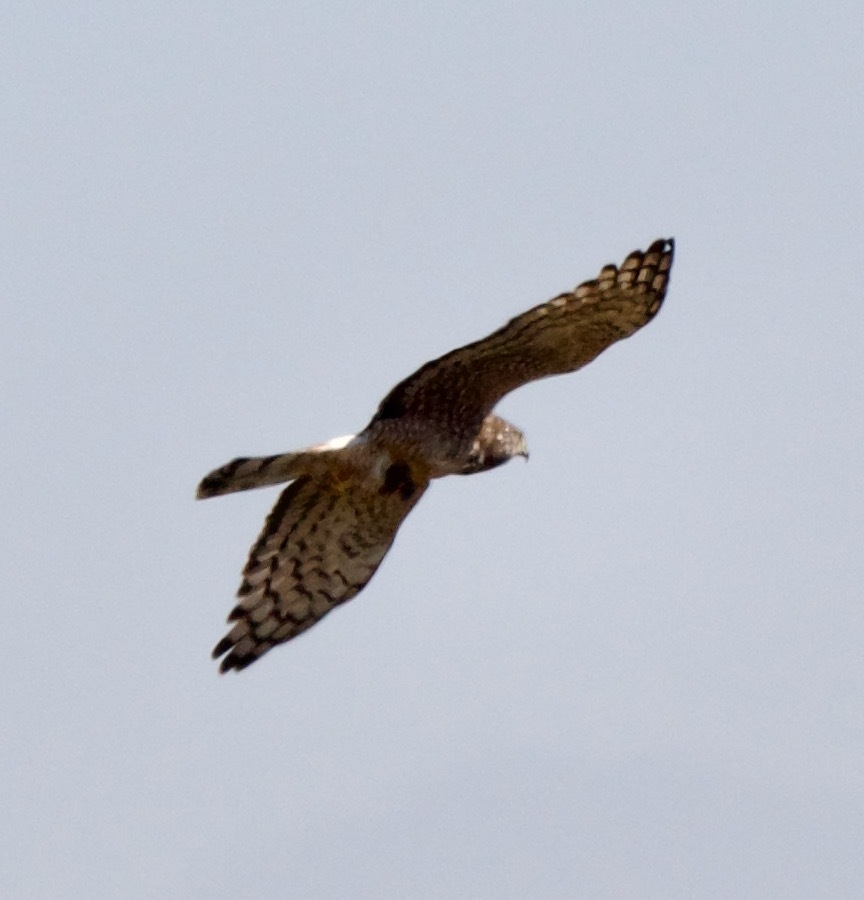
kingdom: Animalia
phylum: Chordata
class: Aves
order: Accipitriformes
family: Accipitridae
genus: Circus
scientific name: Circus cinereus
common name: Cinereous harrier
